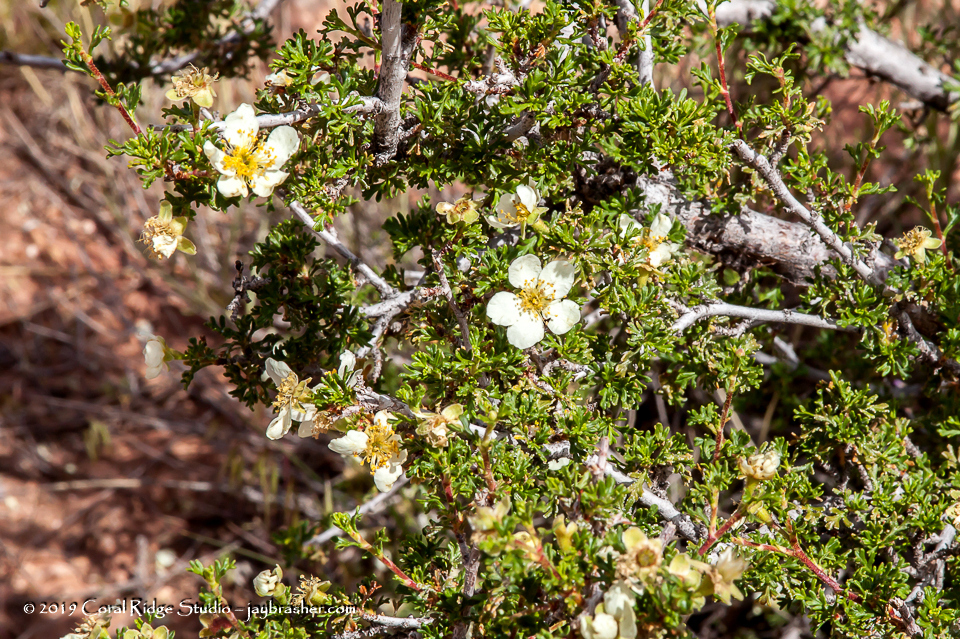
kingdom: Plantae
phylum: Tracheophyta
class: Magnoliopsida
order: Rosales
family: Rosaceae
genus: Purshia
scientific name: Purshia stansburiana
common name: Stansbury's cliffrose
